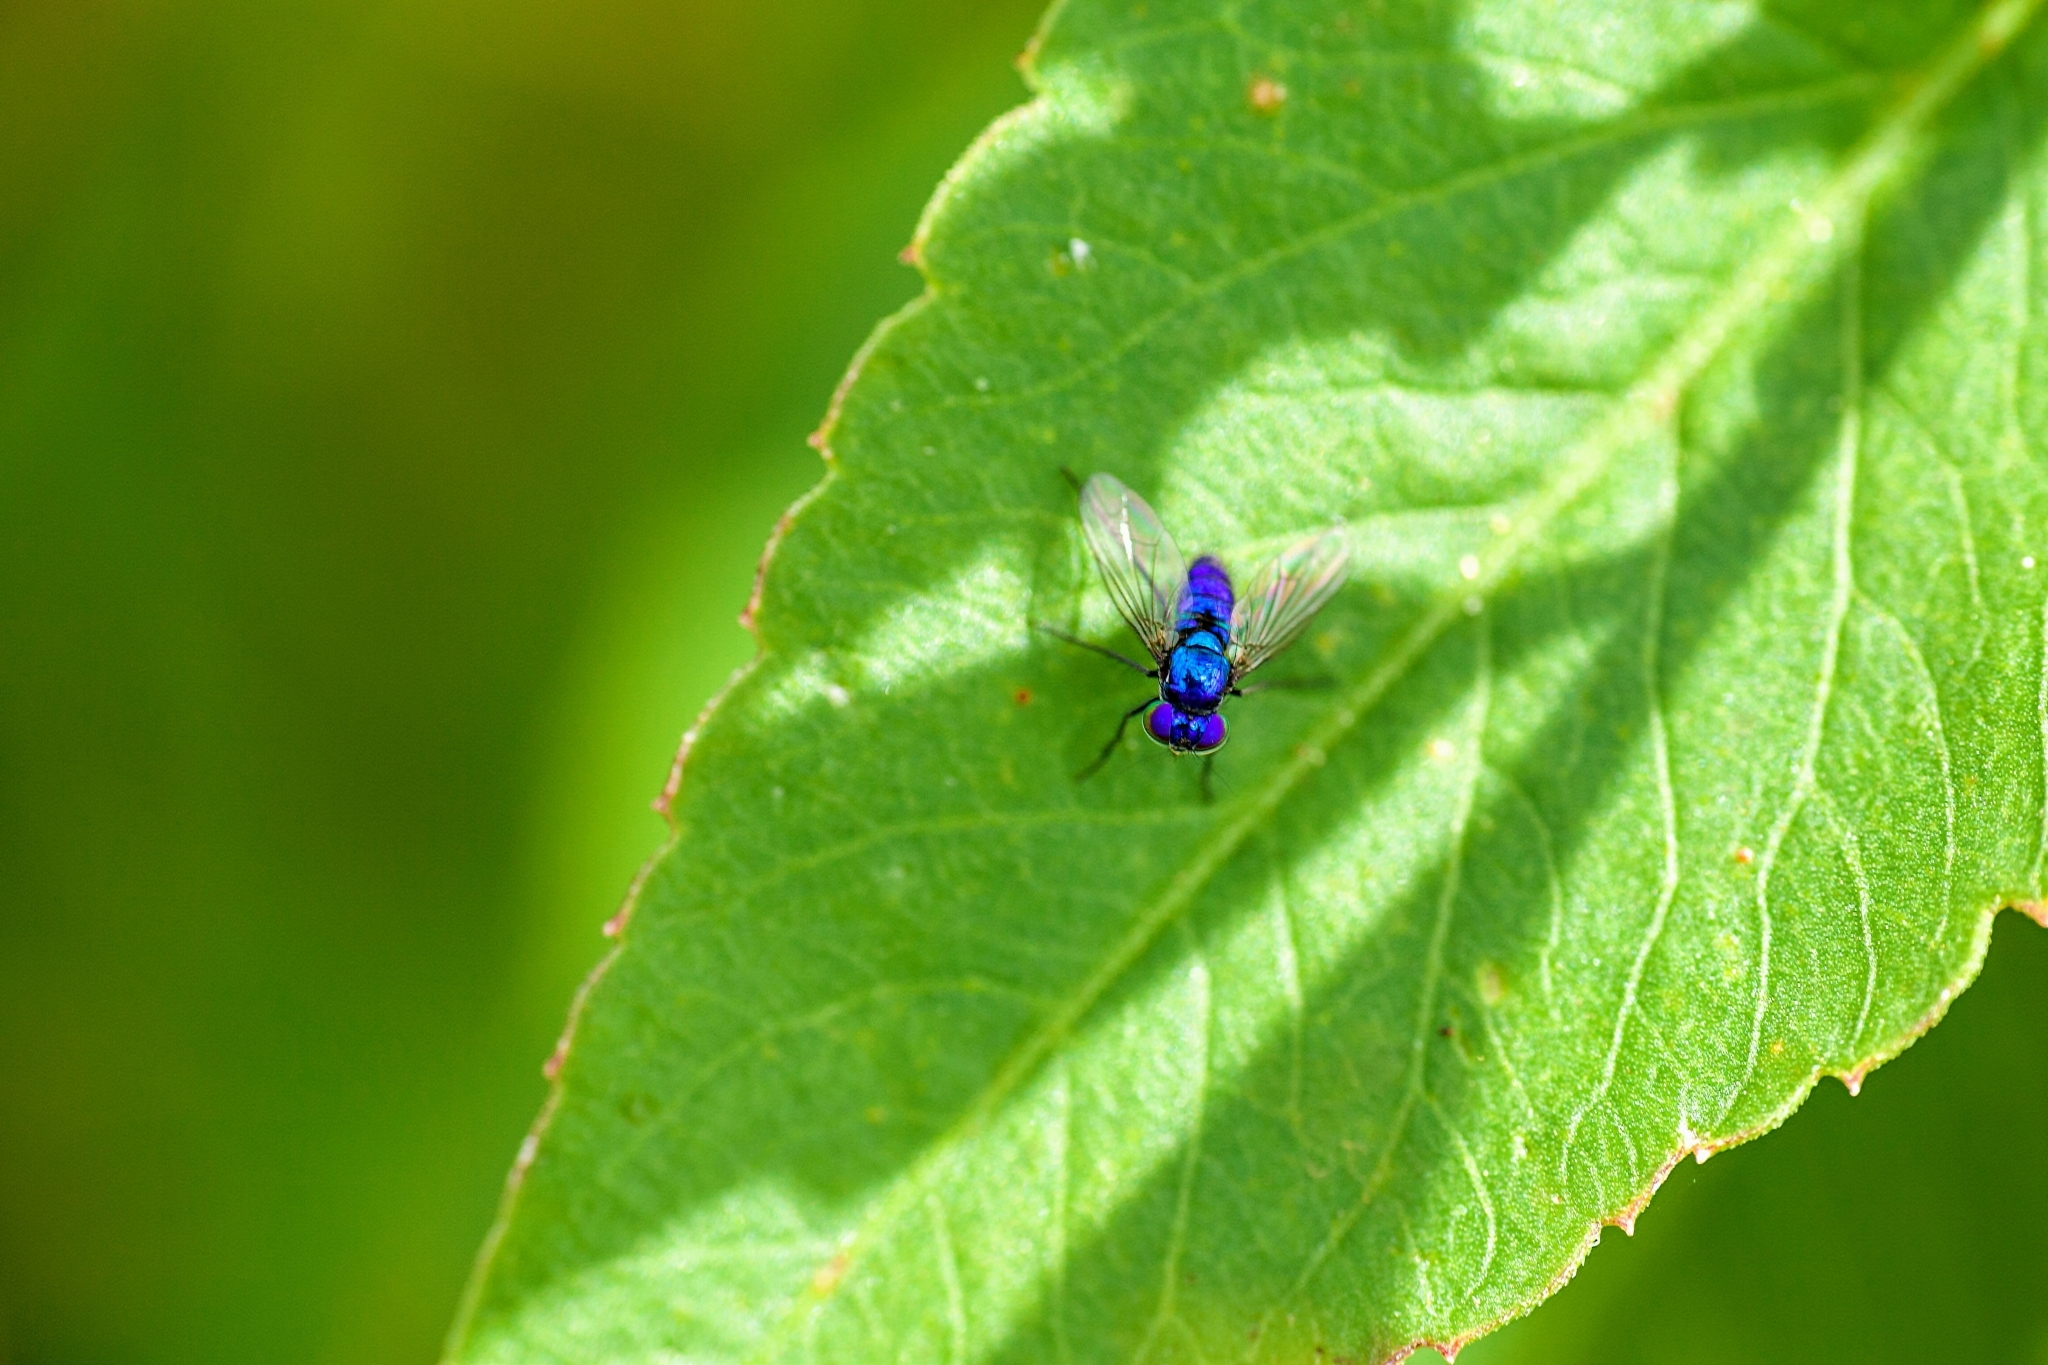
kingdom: Animalia
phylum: Arthropoda
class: Insecta
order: Diptera
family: Dolichopodidae
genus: Condylostylus
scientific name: Condylostylus mundus
